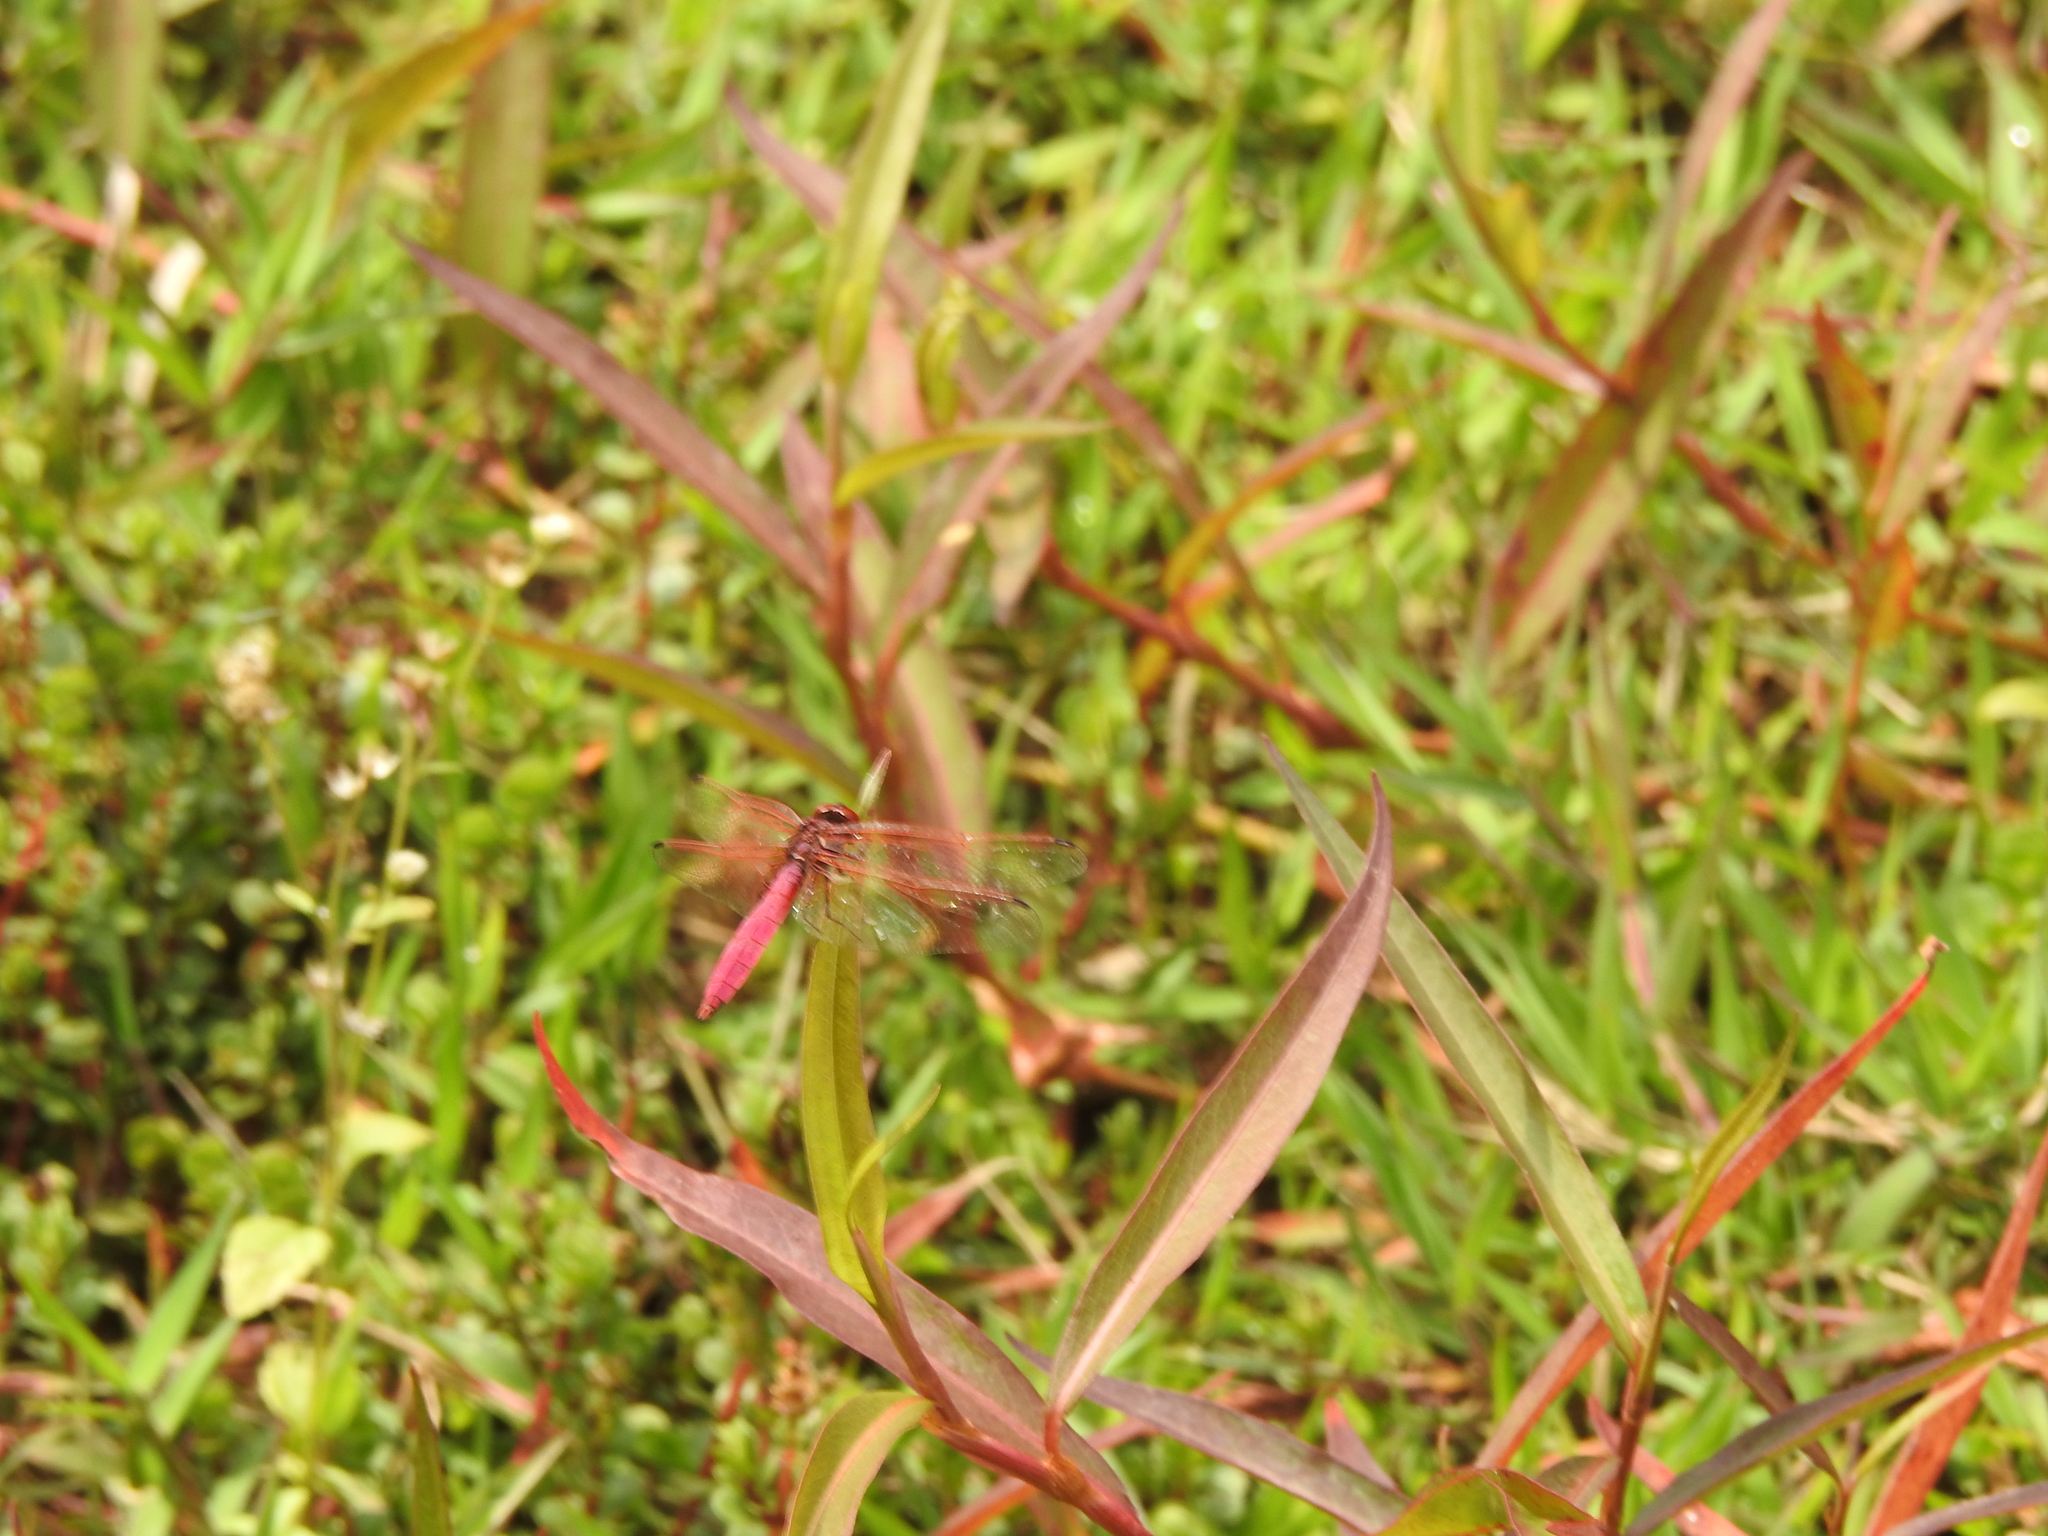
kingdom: Animalia
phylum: Arthropoda
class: Insecta
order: Odonata
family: Libellulidae
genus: Trithemis
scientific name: Trithemis aurora
